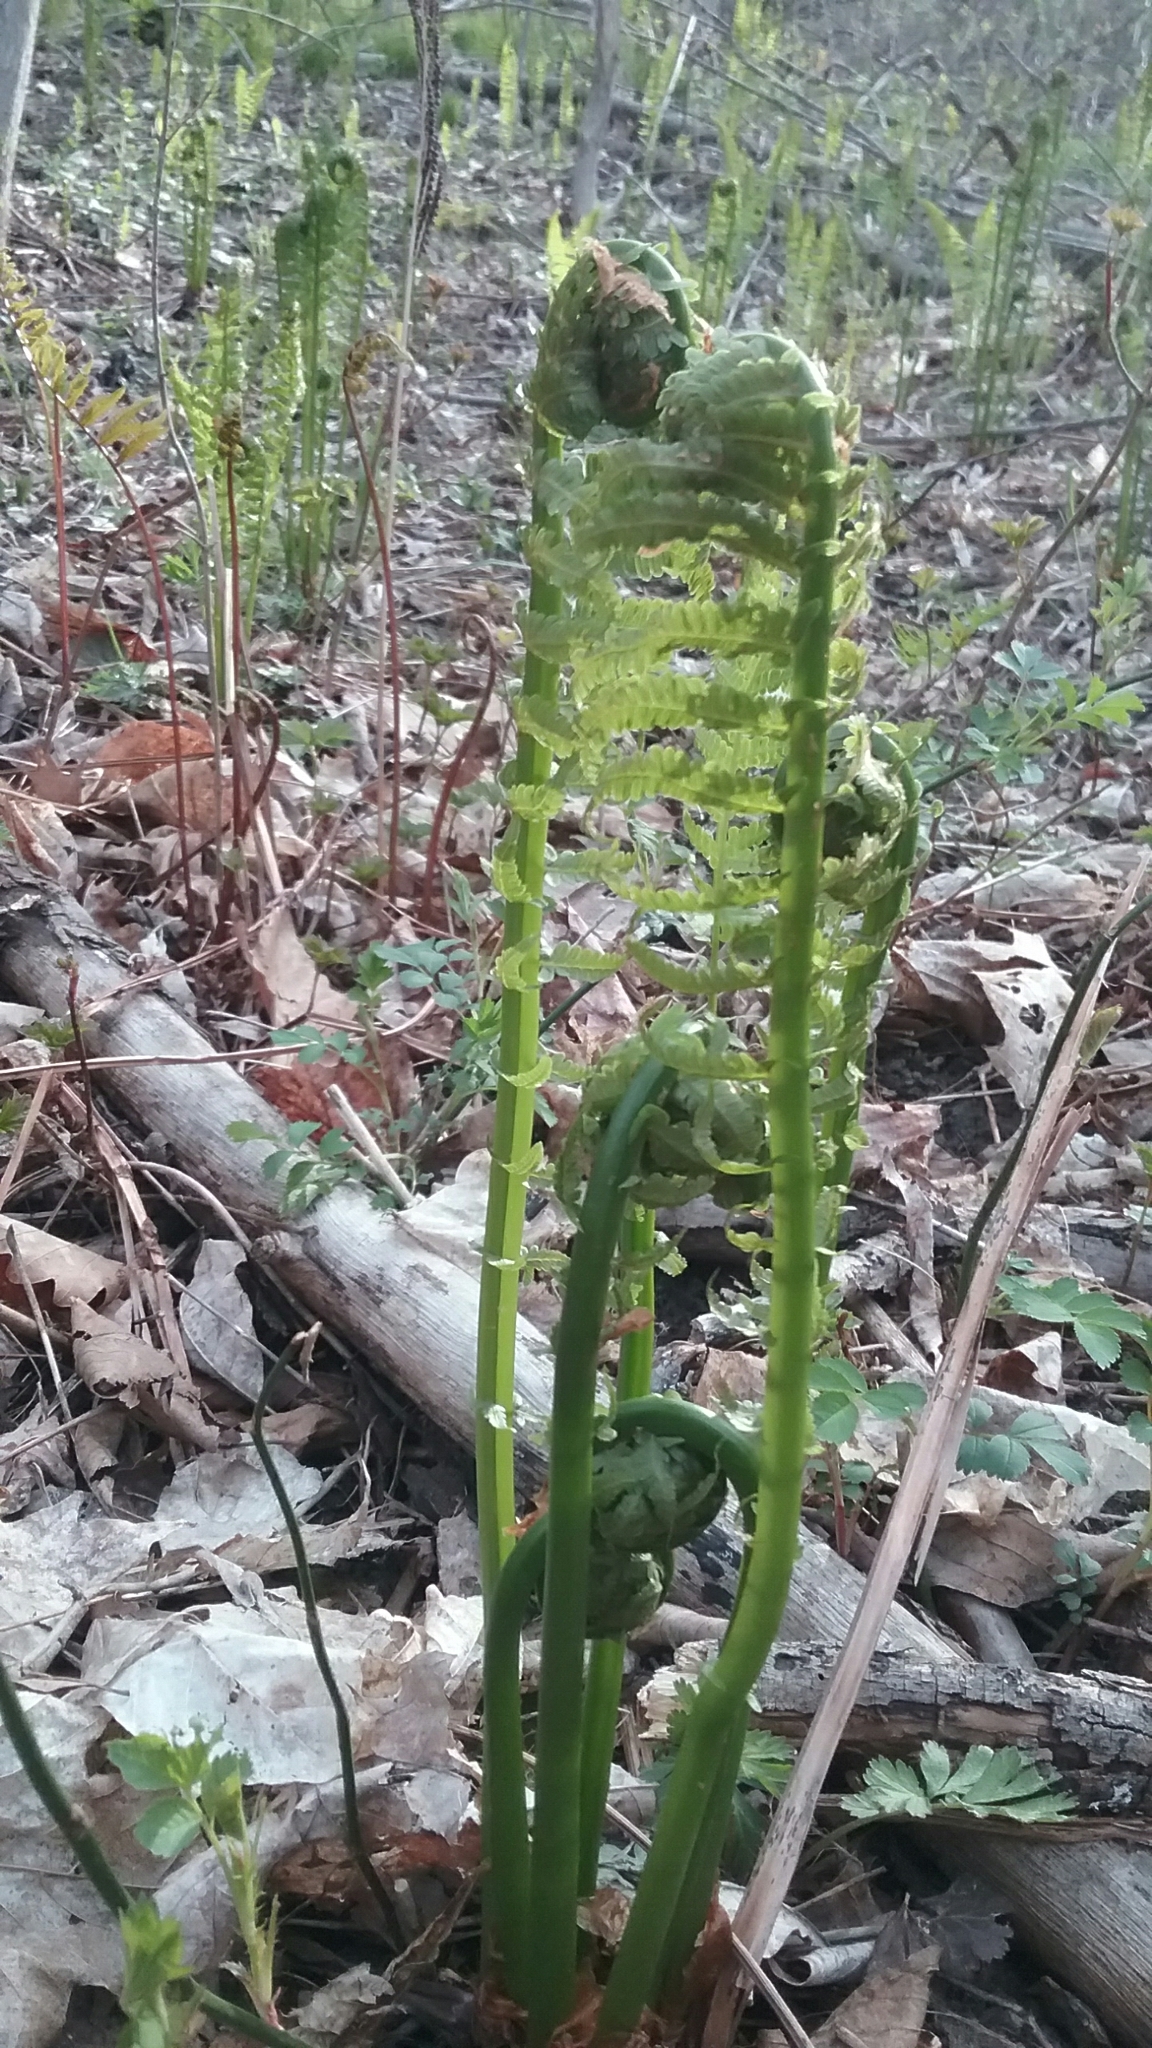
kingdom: Plantae
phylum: Tracheophyta
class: Polypodiopsida
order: Polypodiales
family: Onocleaceae
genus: Matteuccia
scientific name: Matteuccia struthiopteris
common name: Ostrich fern
